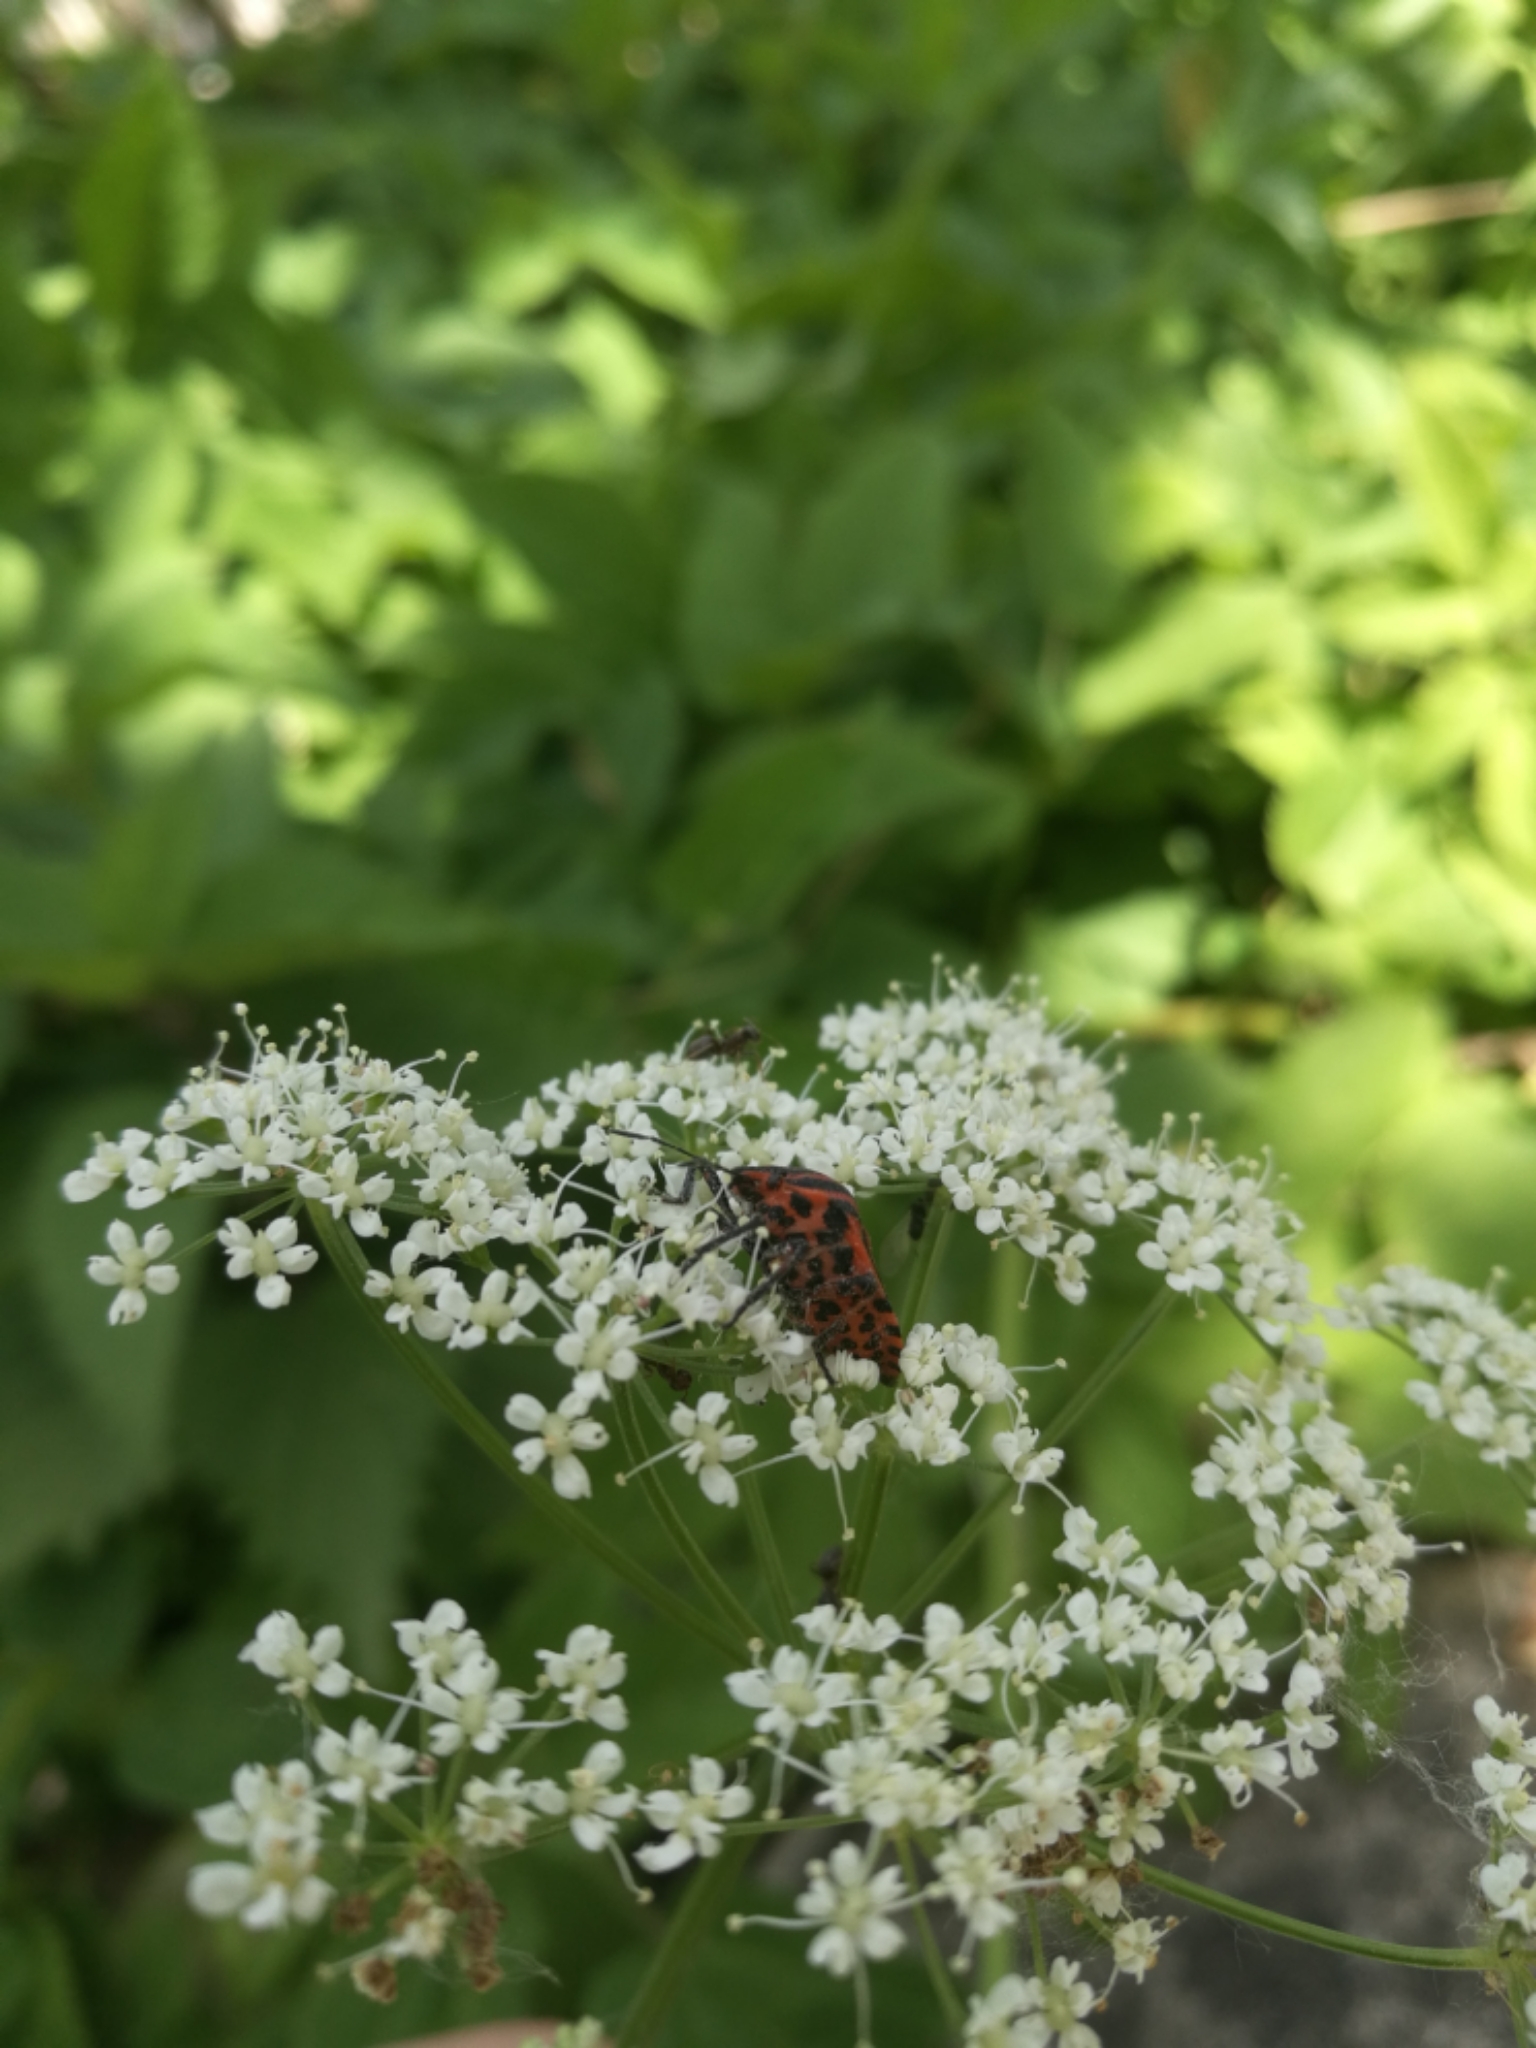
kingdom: Animalia
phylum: Arthropoda
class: Insecta
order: Hemiptera
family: Pentatomidae
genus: Graphosoma
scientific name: Graphosoma italicum
